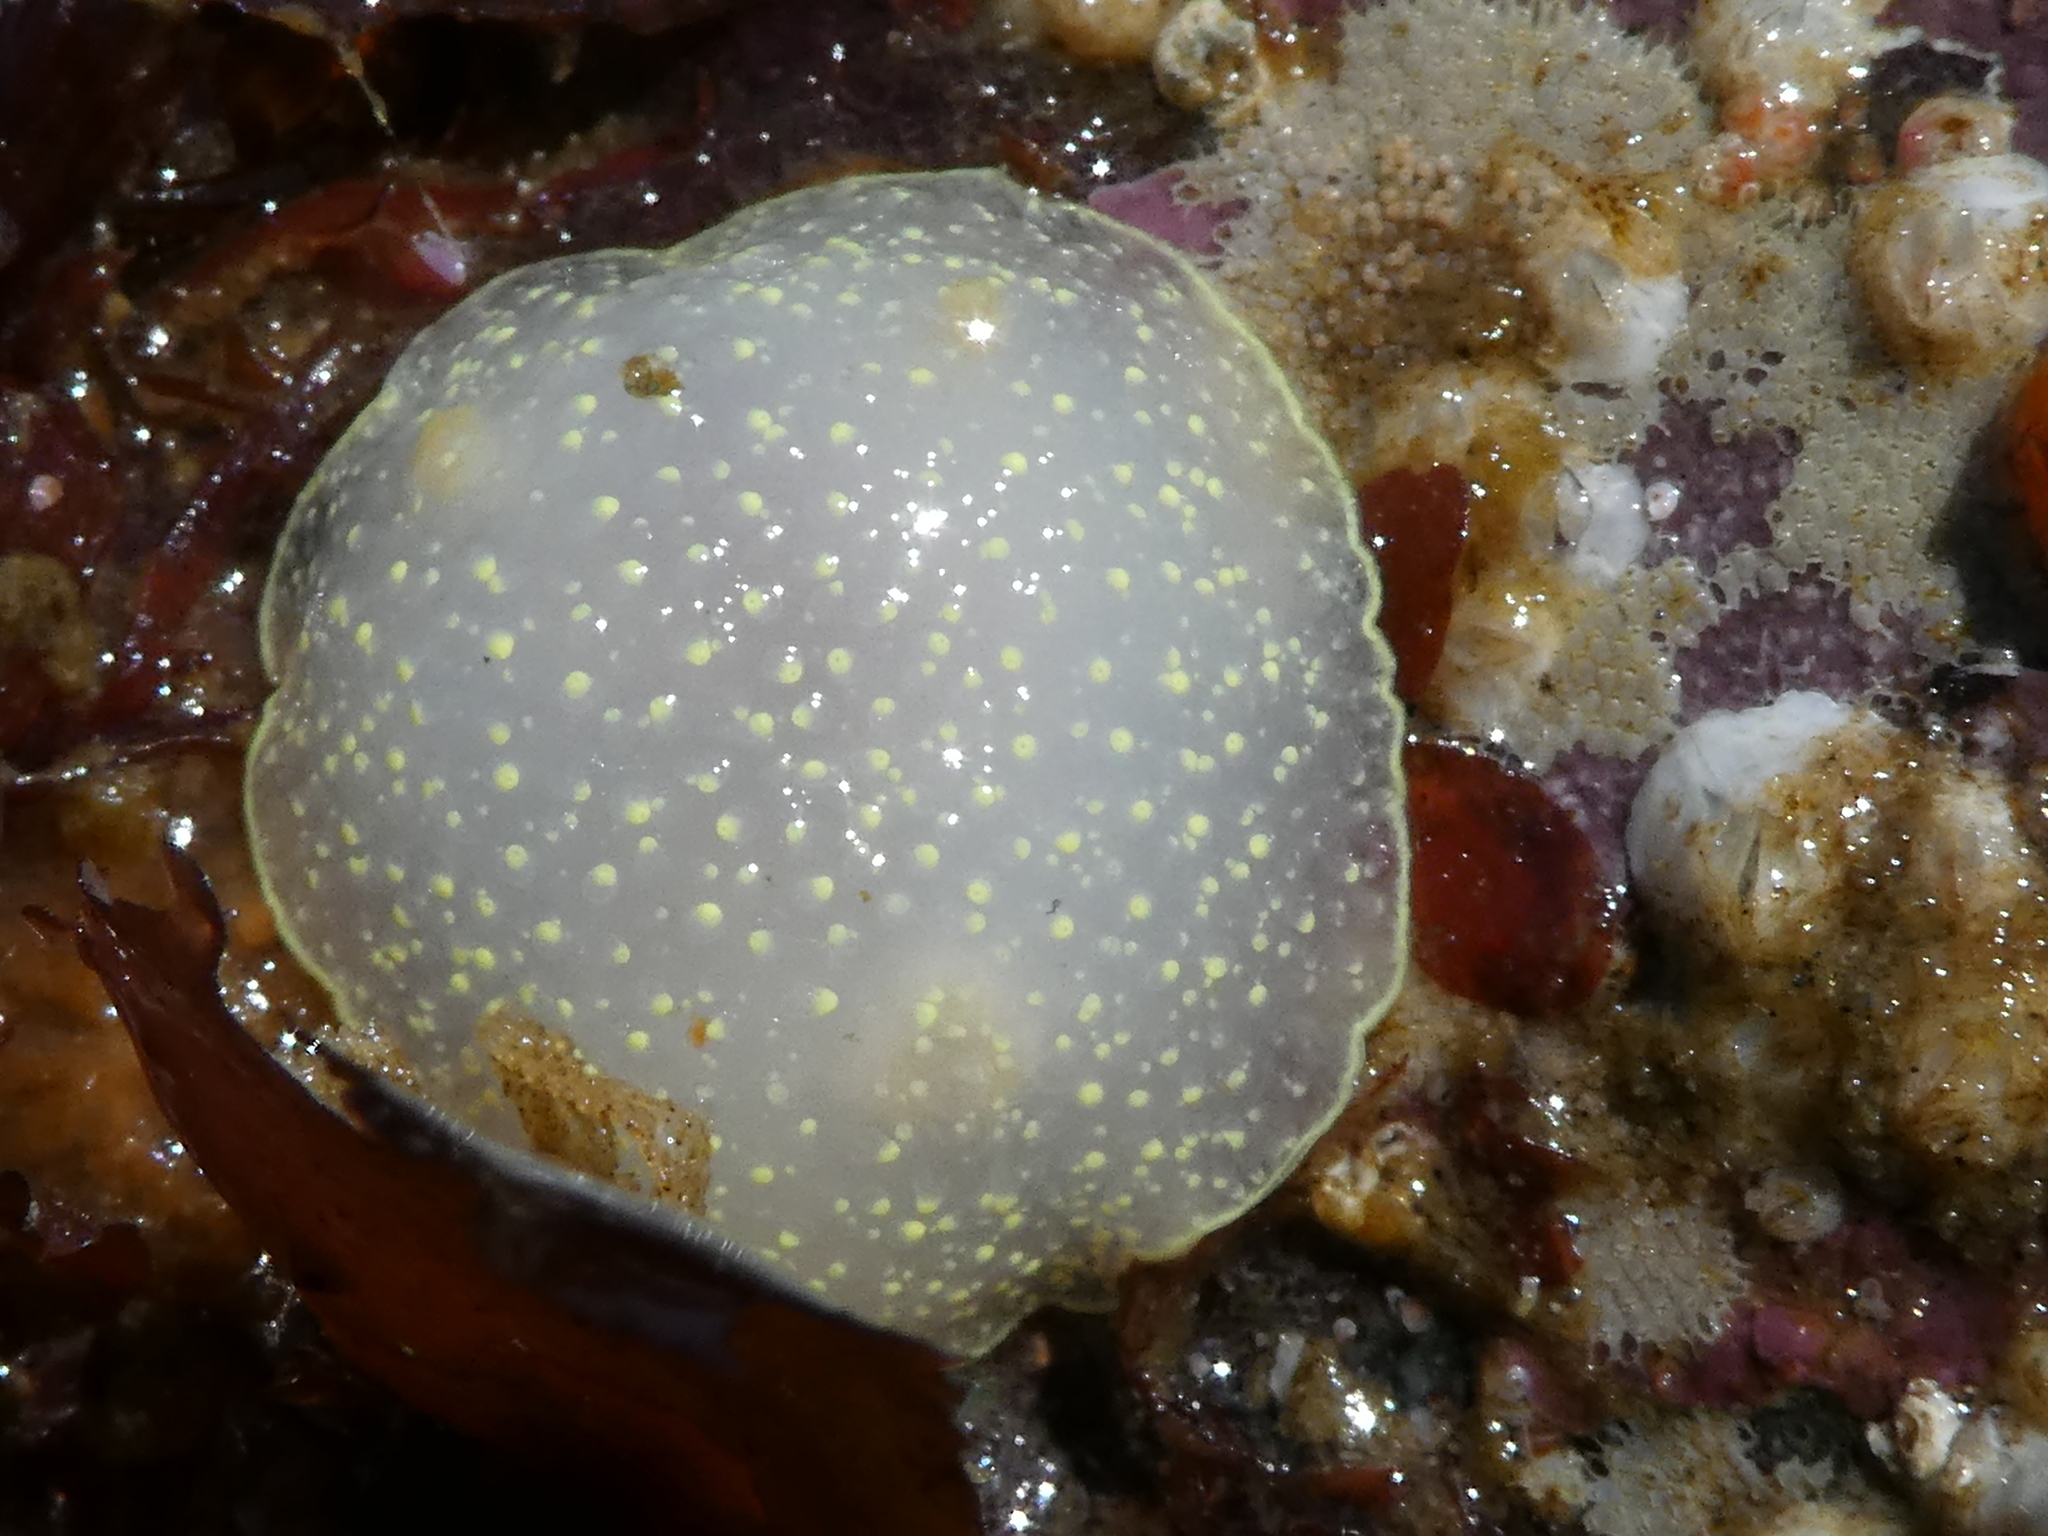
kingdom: Animalia
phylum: Mollusca
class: Gastropoda
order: Nudibranchia
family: Cadlinidae
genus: Cadlina
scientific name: Cadlina luteomarginata
